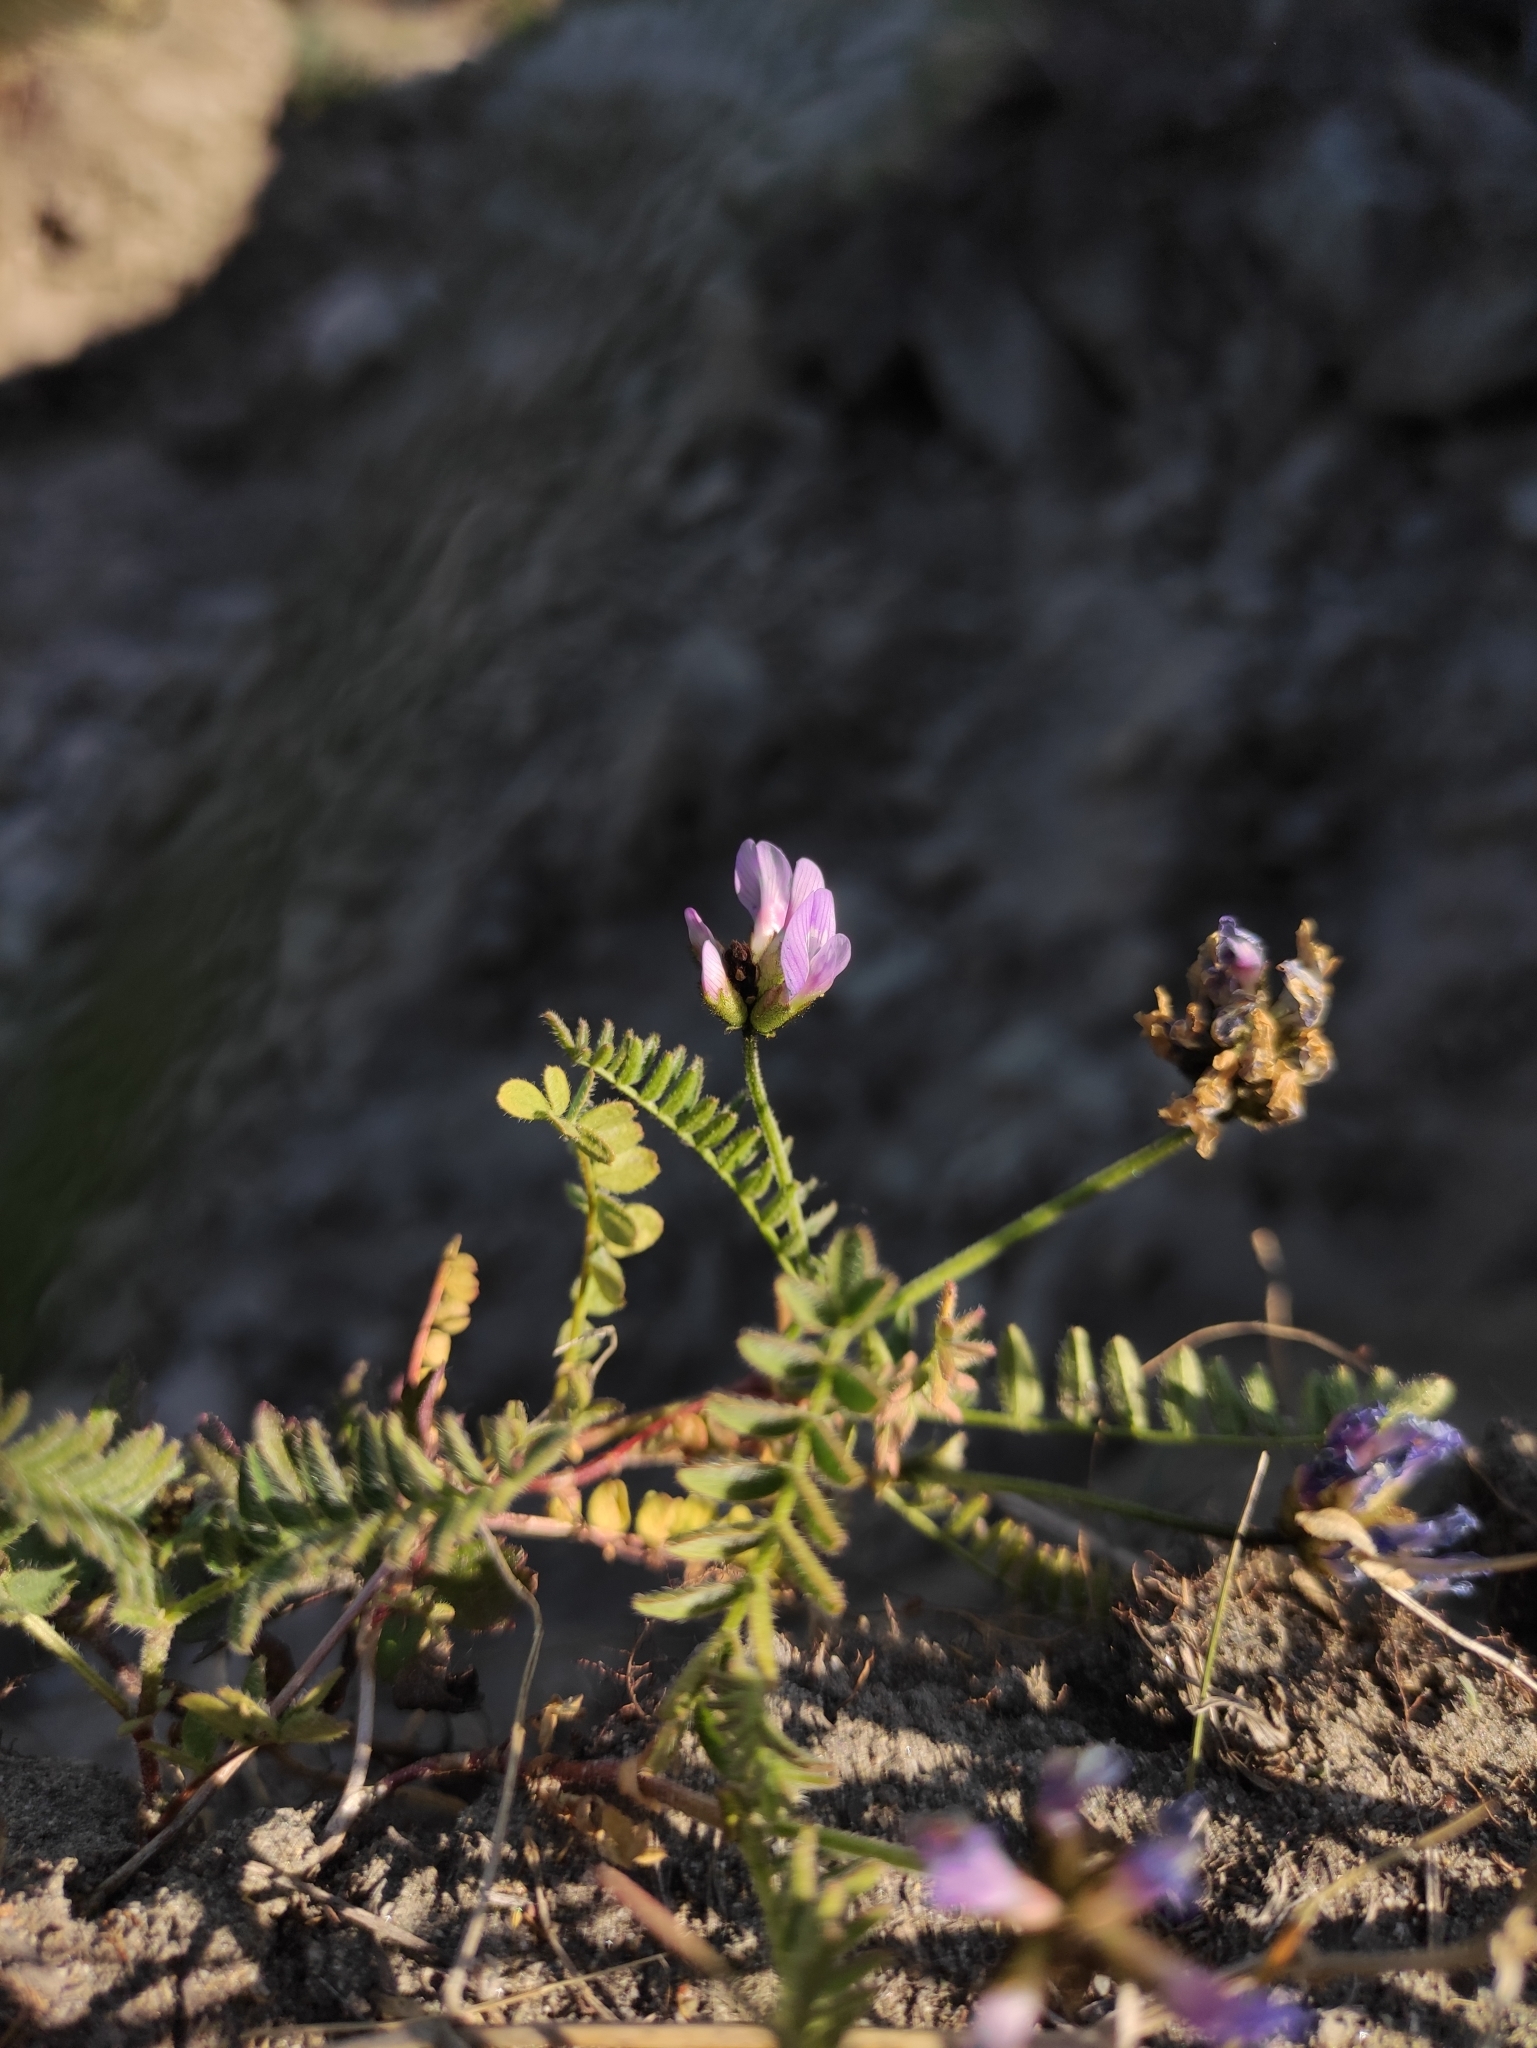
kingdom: Plantae
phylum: Tracheophyta
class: Magnoliopsida
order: Fabales
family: Fabaceae
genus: Astragalus
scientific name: Astragalus danicus
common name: Purple milk-vetch
